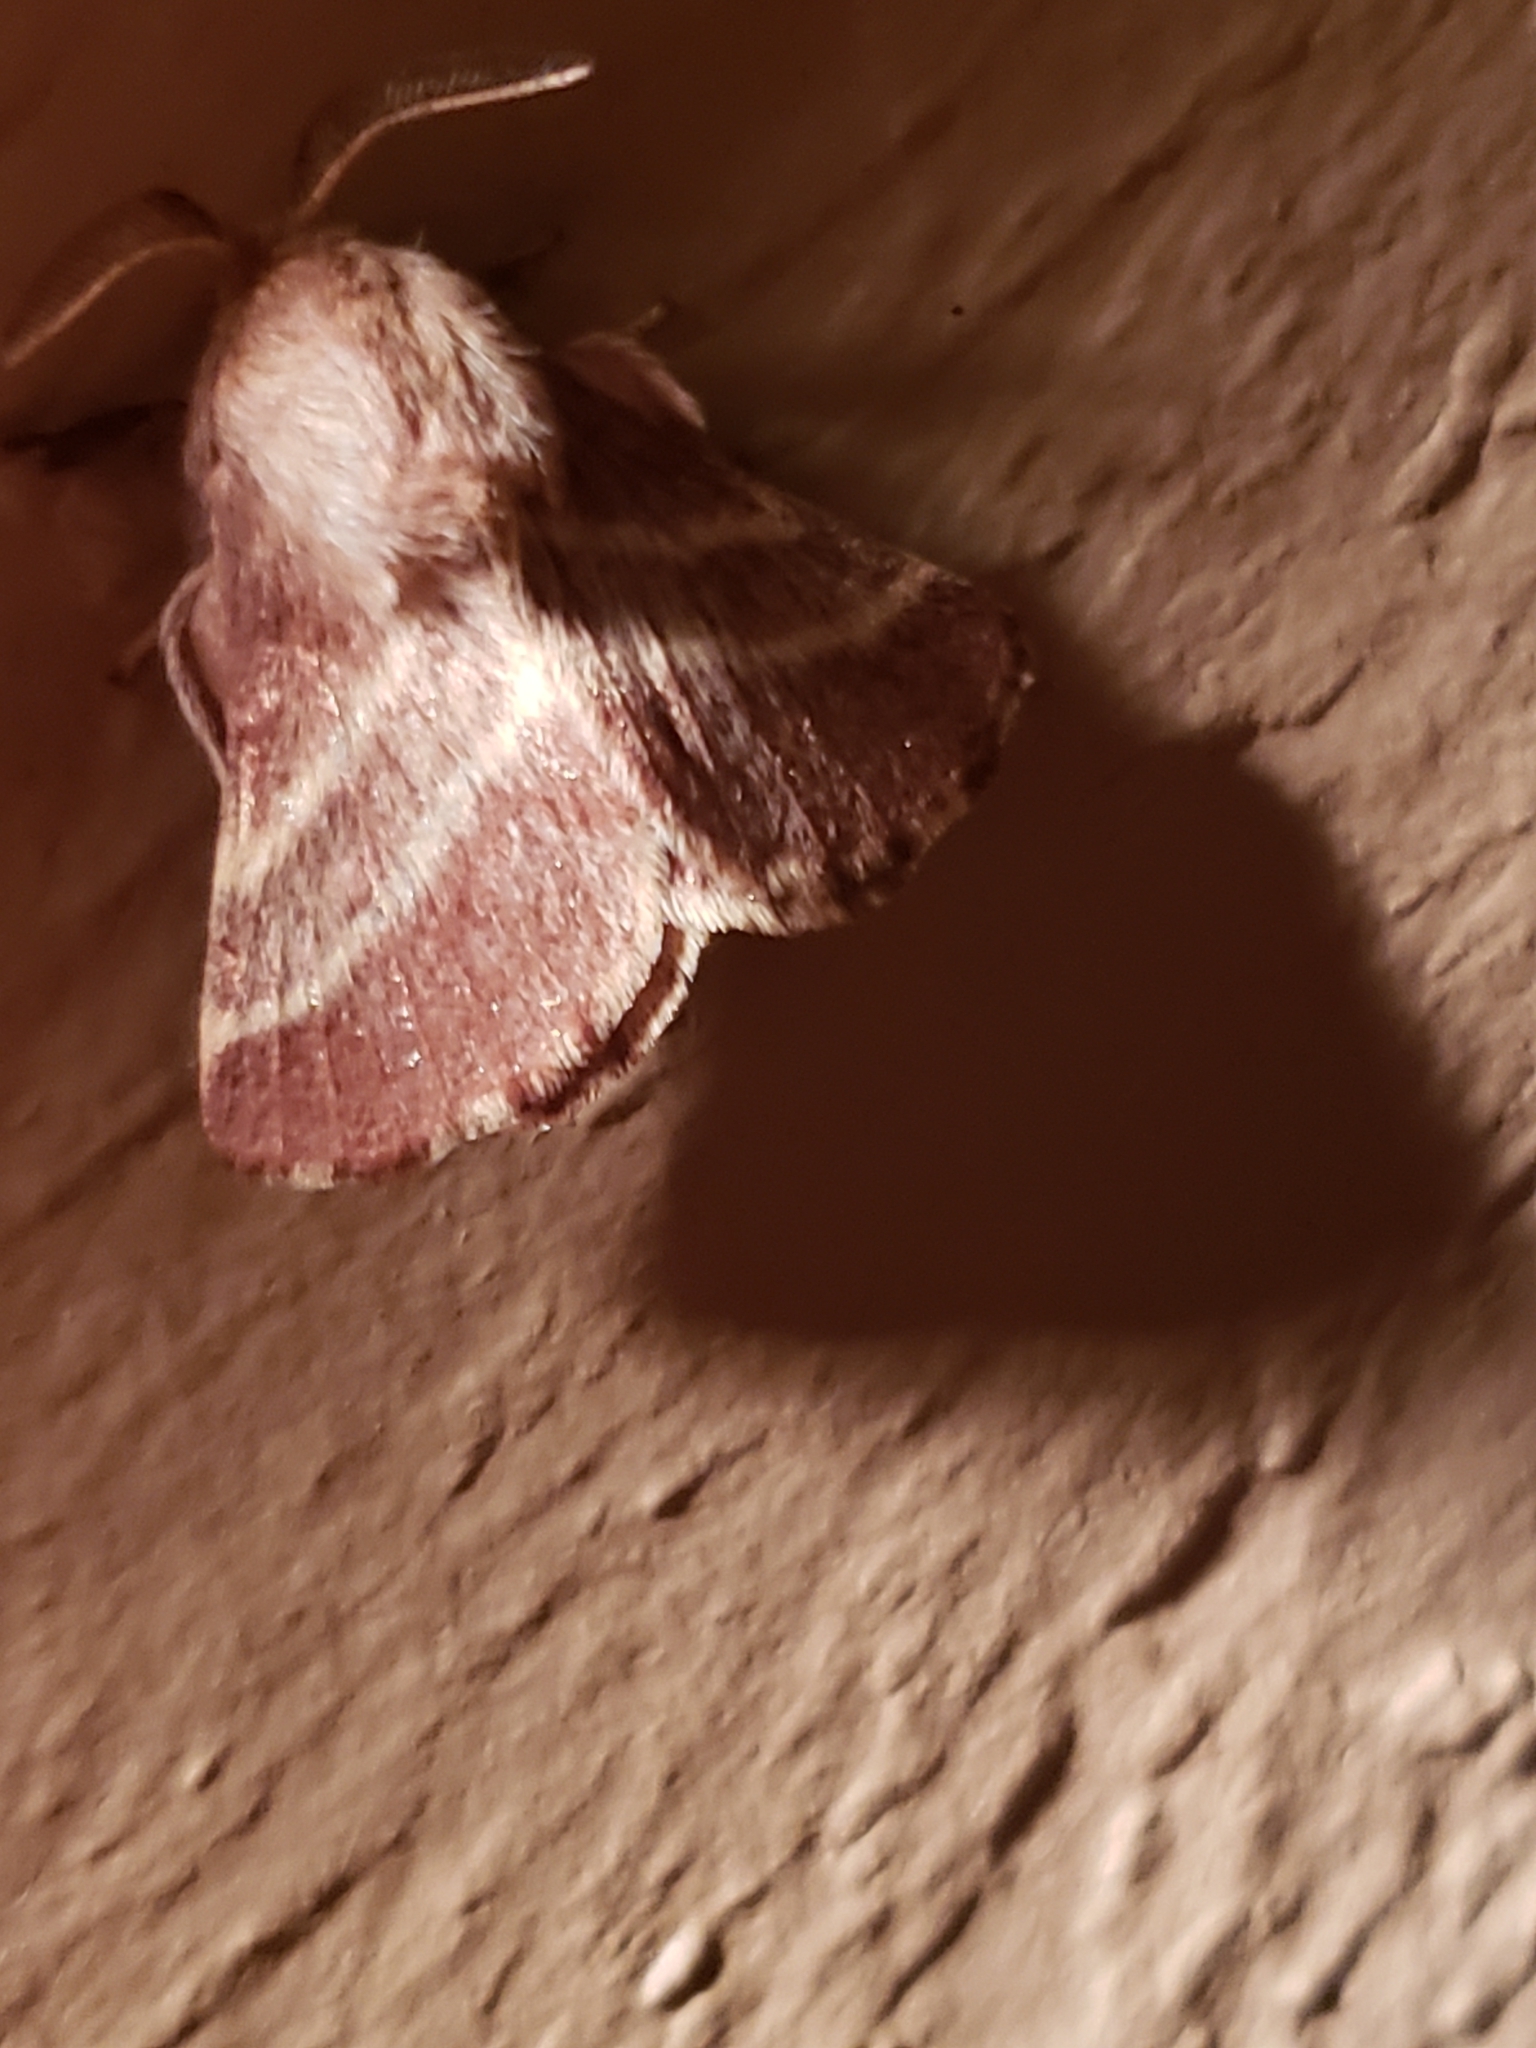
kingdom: Animalia
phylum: Arthropoda
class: Insecta
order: Lepidoptera
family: Lasiocampidae
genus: Malacosoma
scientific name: Malacosoma americana
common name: Eastern tent caterpillar moth
